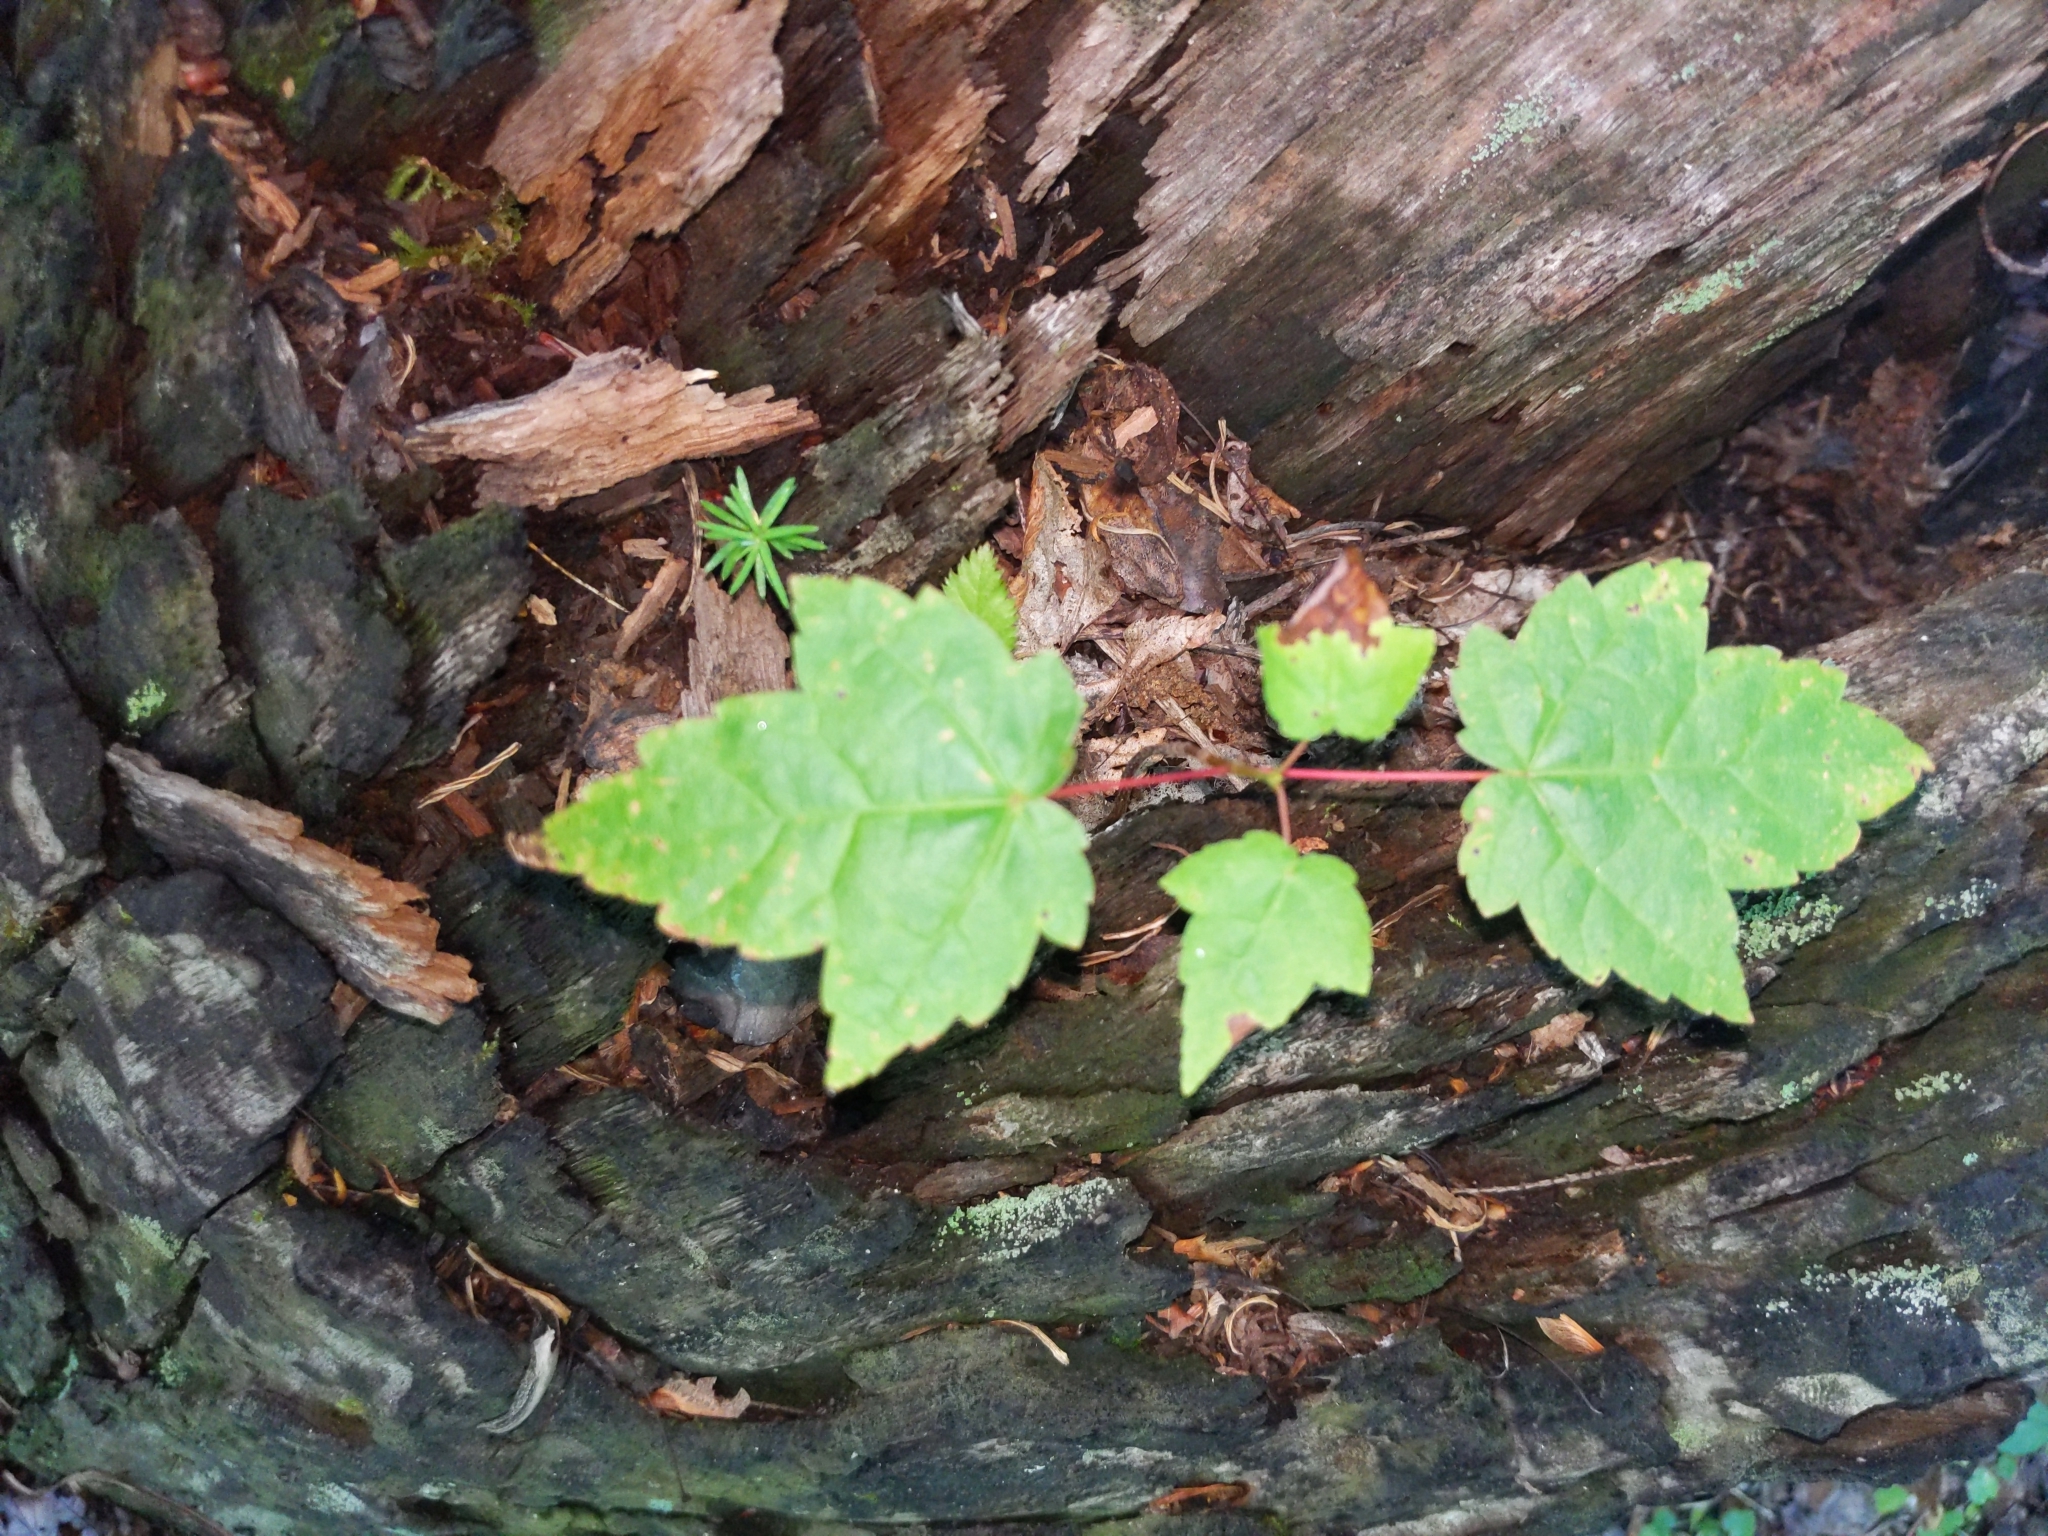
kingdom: Plantae
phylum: Tracheophyta
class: Magnoliopsida
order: Sapindales
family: Sapindaceae
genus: Acer
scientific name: Acer rubrum
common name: Red maple
